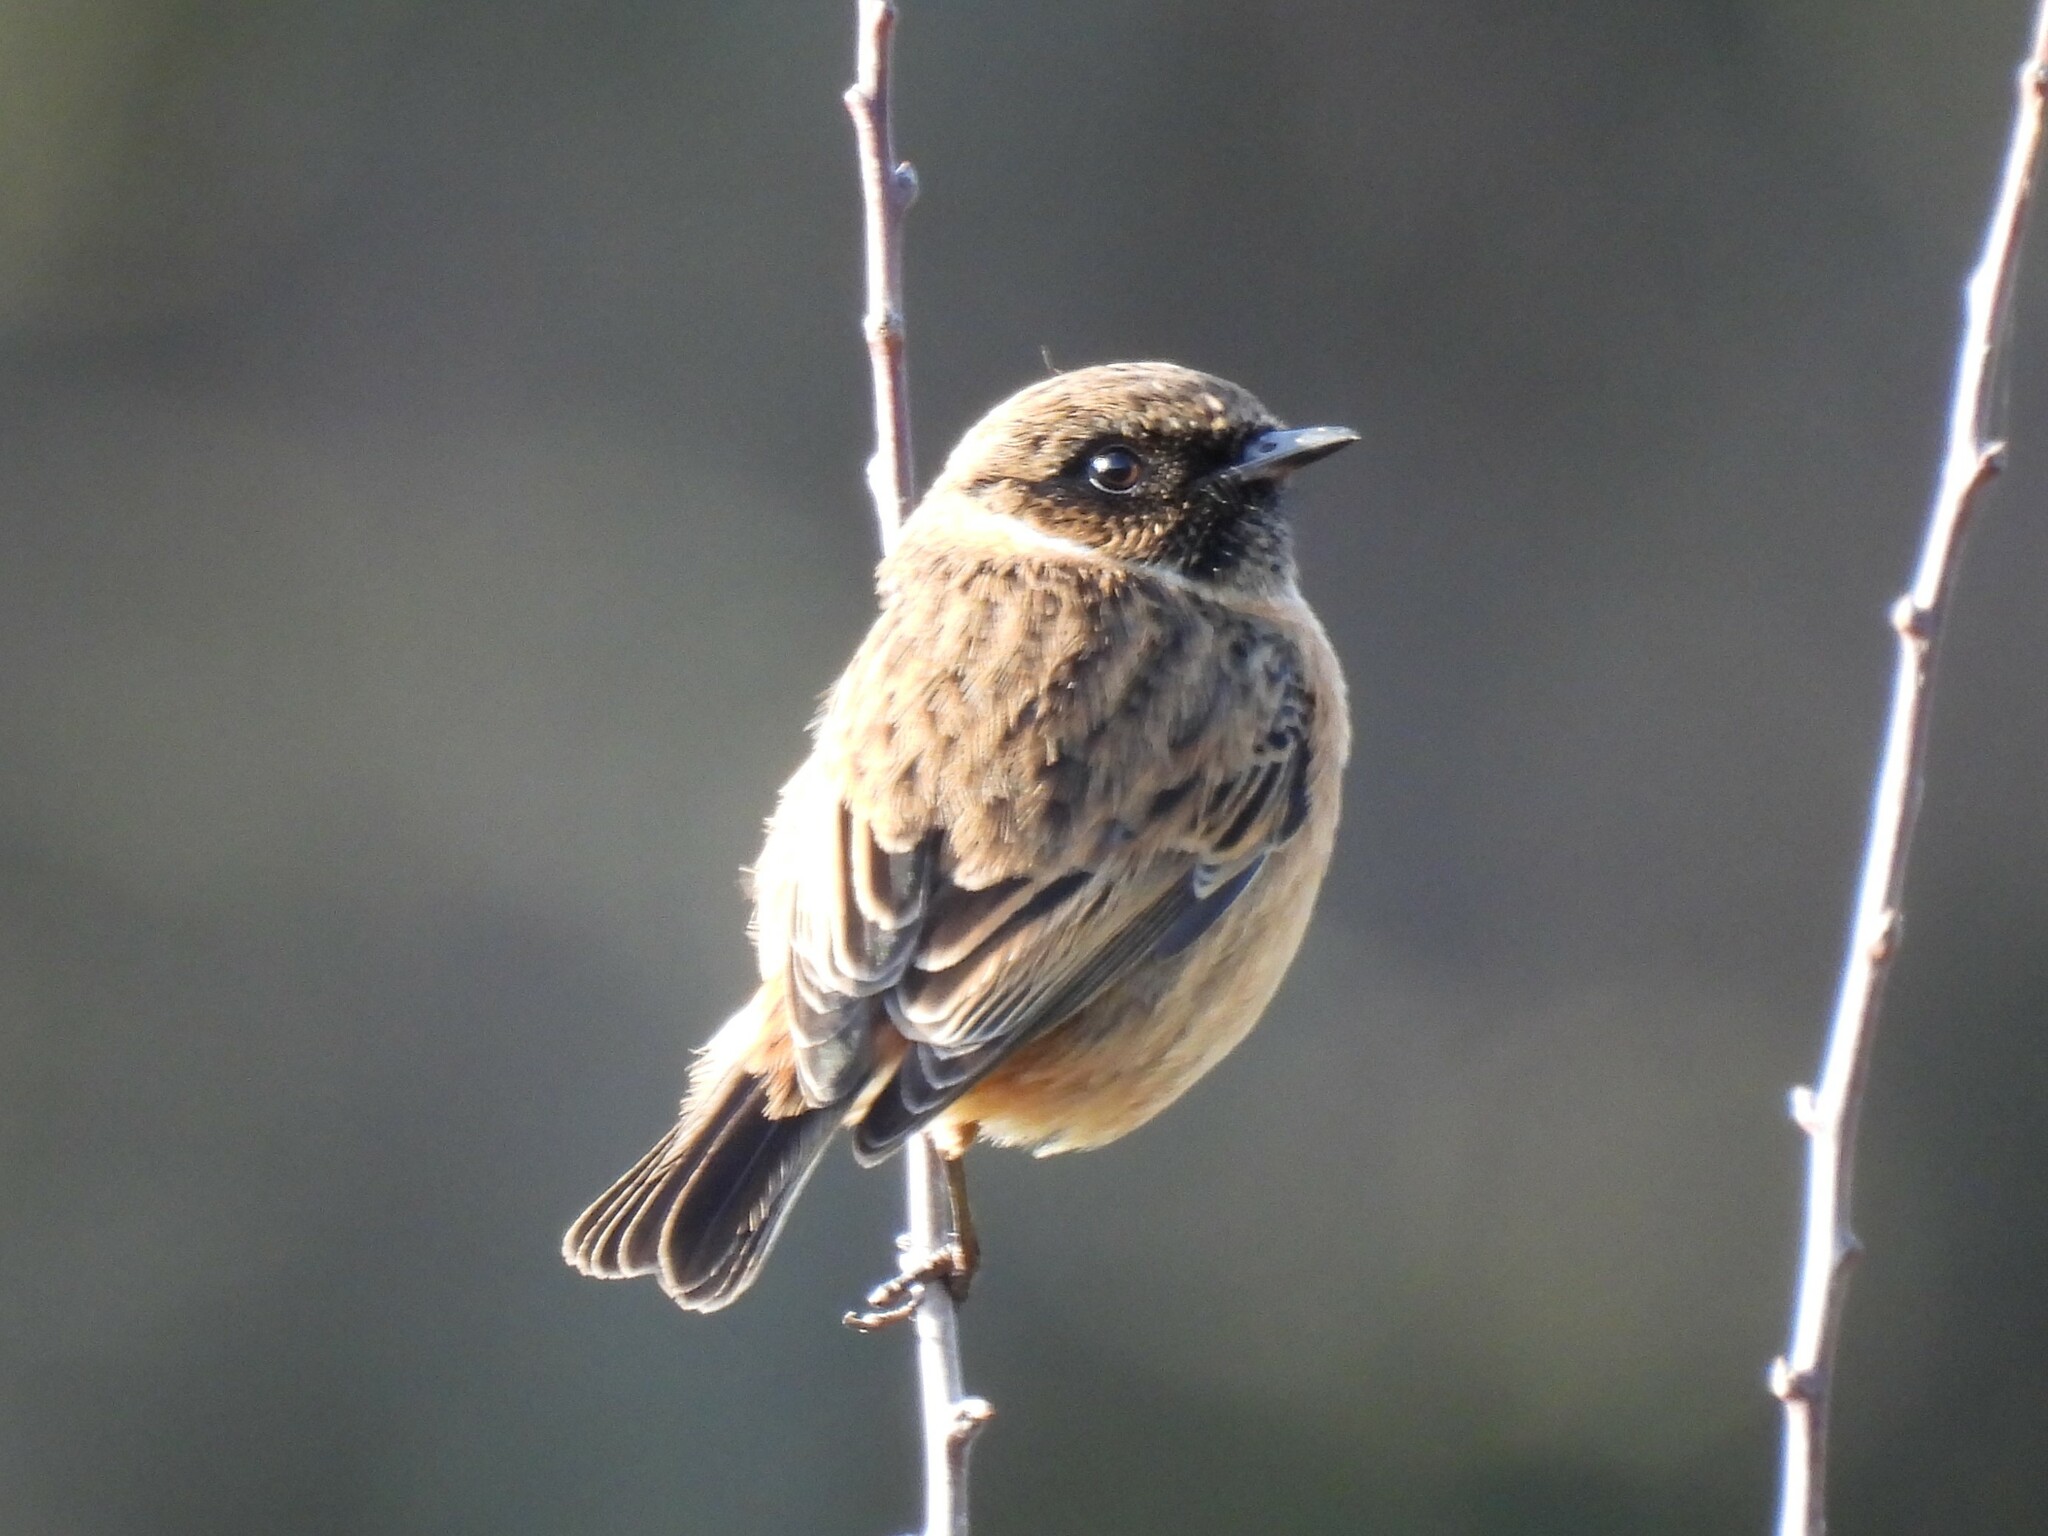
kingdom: Animalia
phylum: Chordata
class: Aves
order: Passeriformes
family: Muscicapidae
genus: Saxicola
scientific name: Saxicola rubicola
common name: European stonechat
